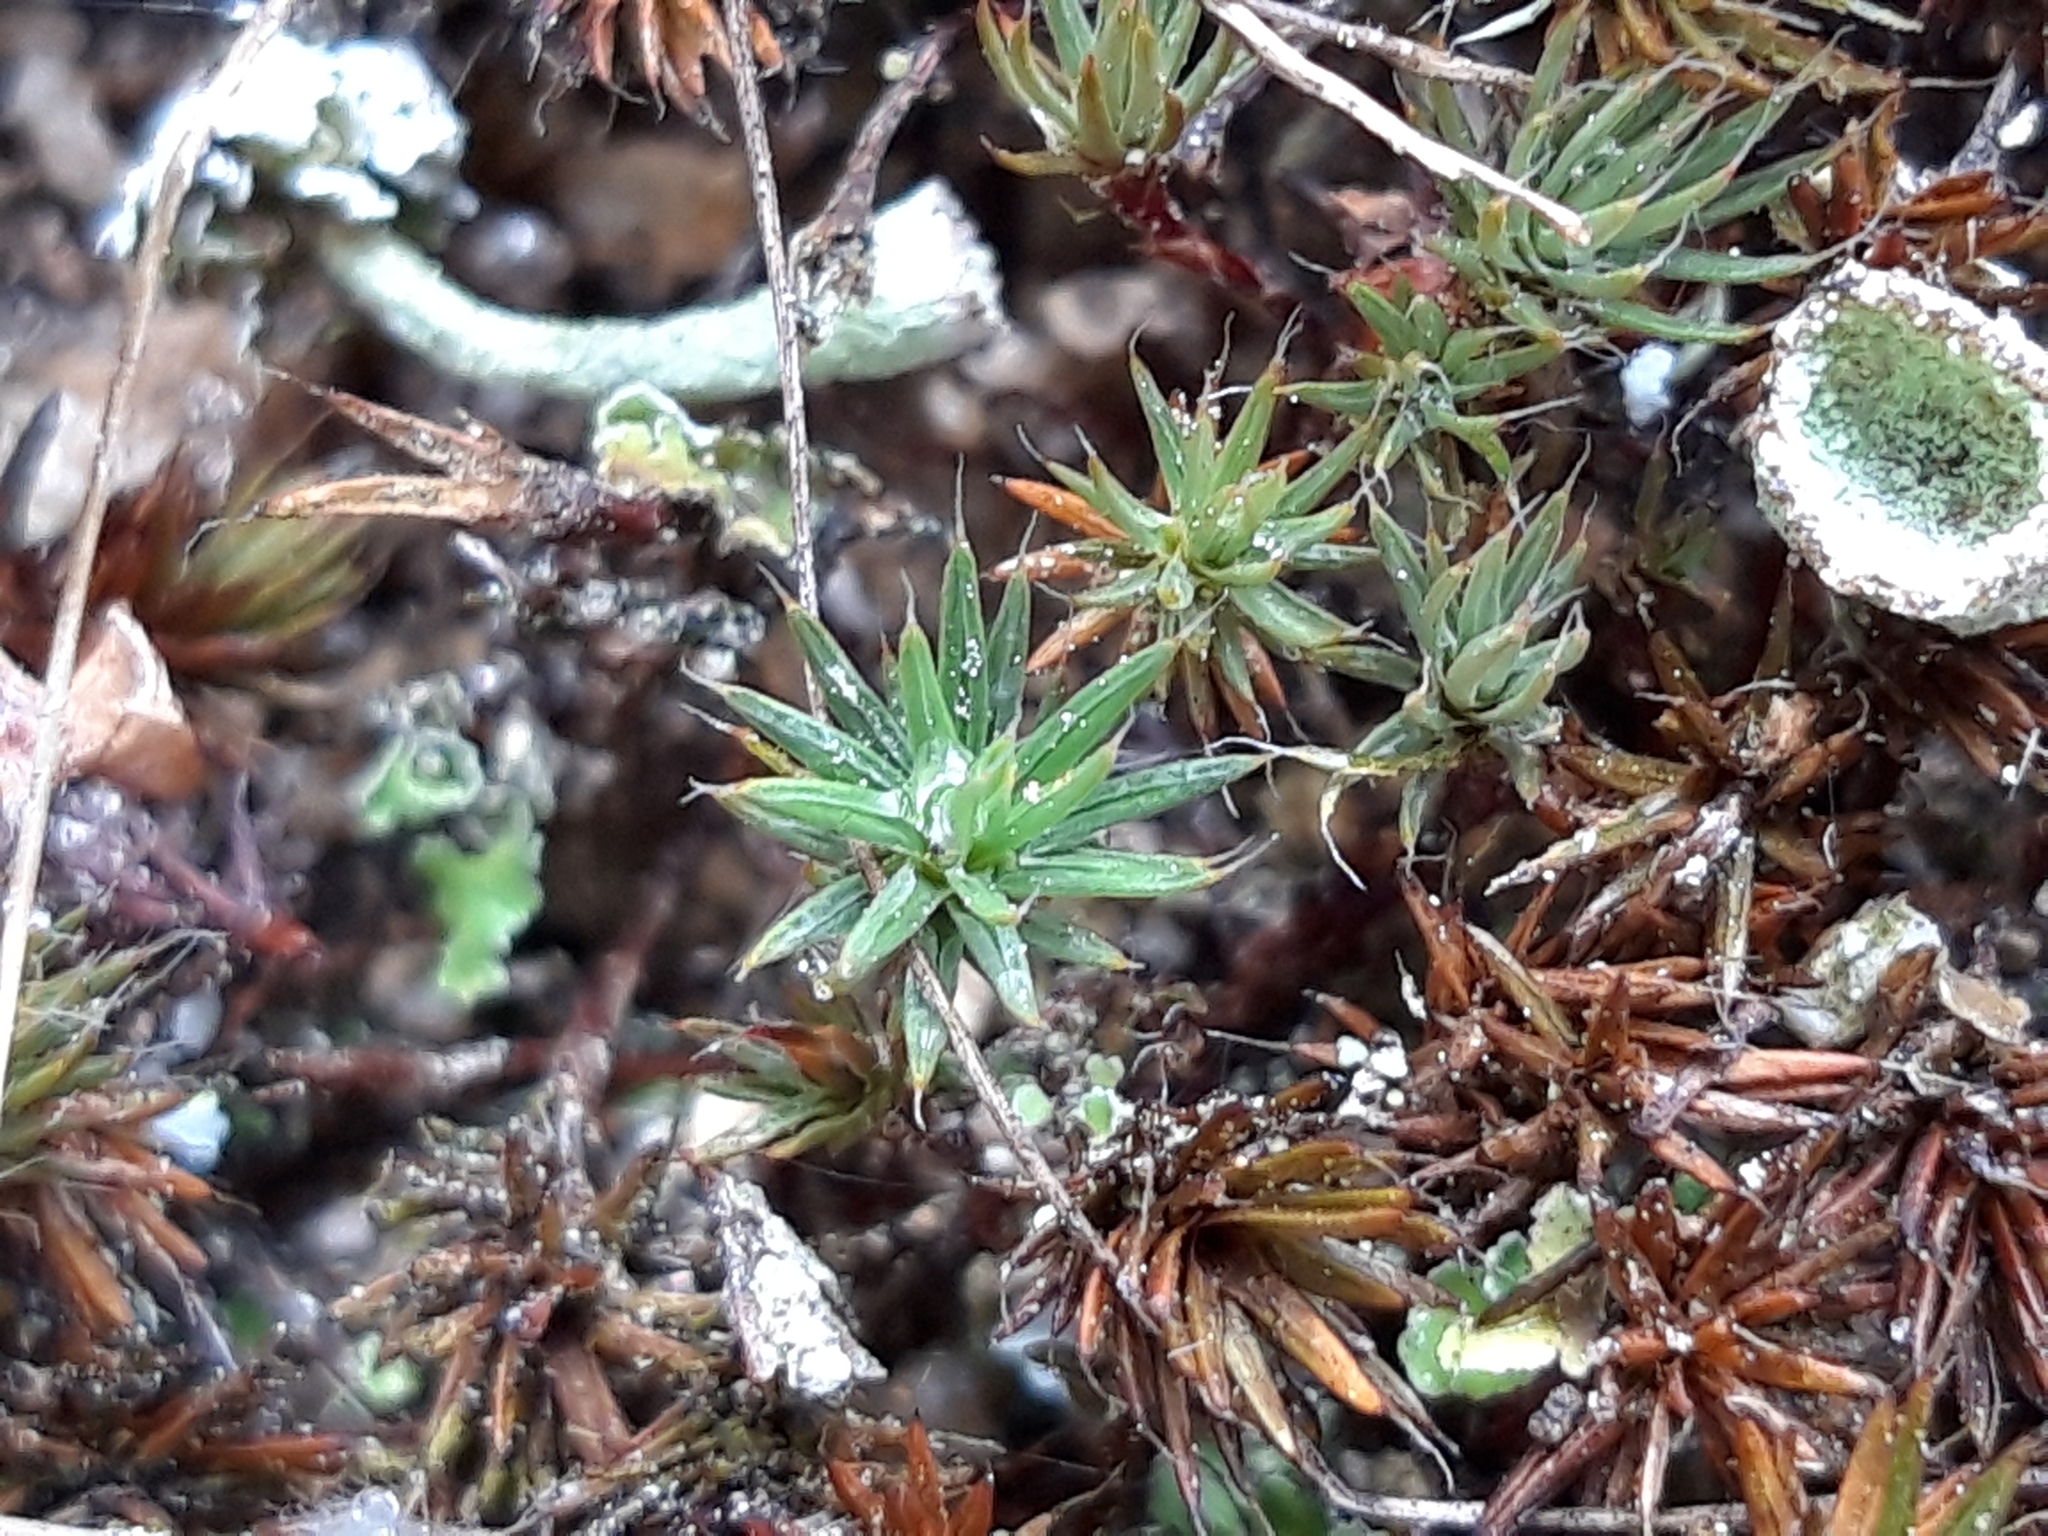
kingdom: Plantae
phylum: Bryophyta
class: Polytrichopsida
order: Polytrichales
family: Polytrichaceae
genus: Polytrichum
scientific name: Polytrichum piliferum
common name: Bristly haircap
